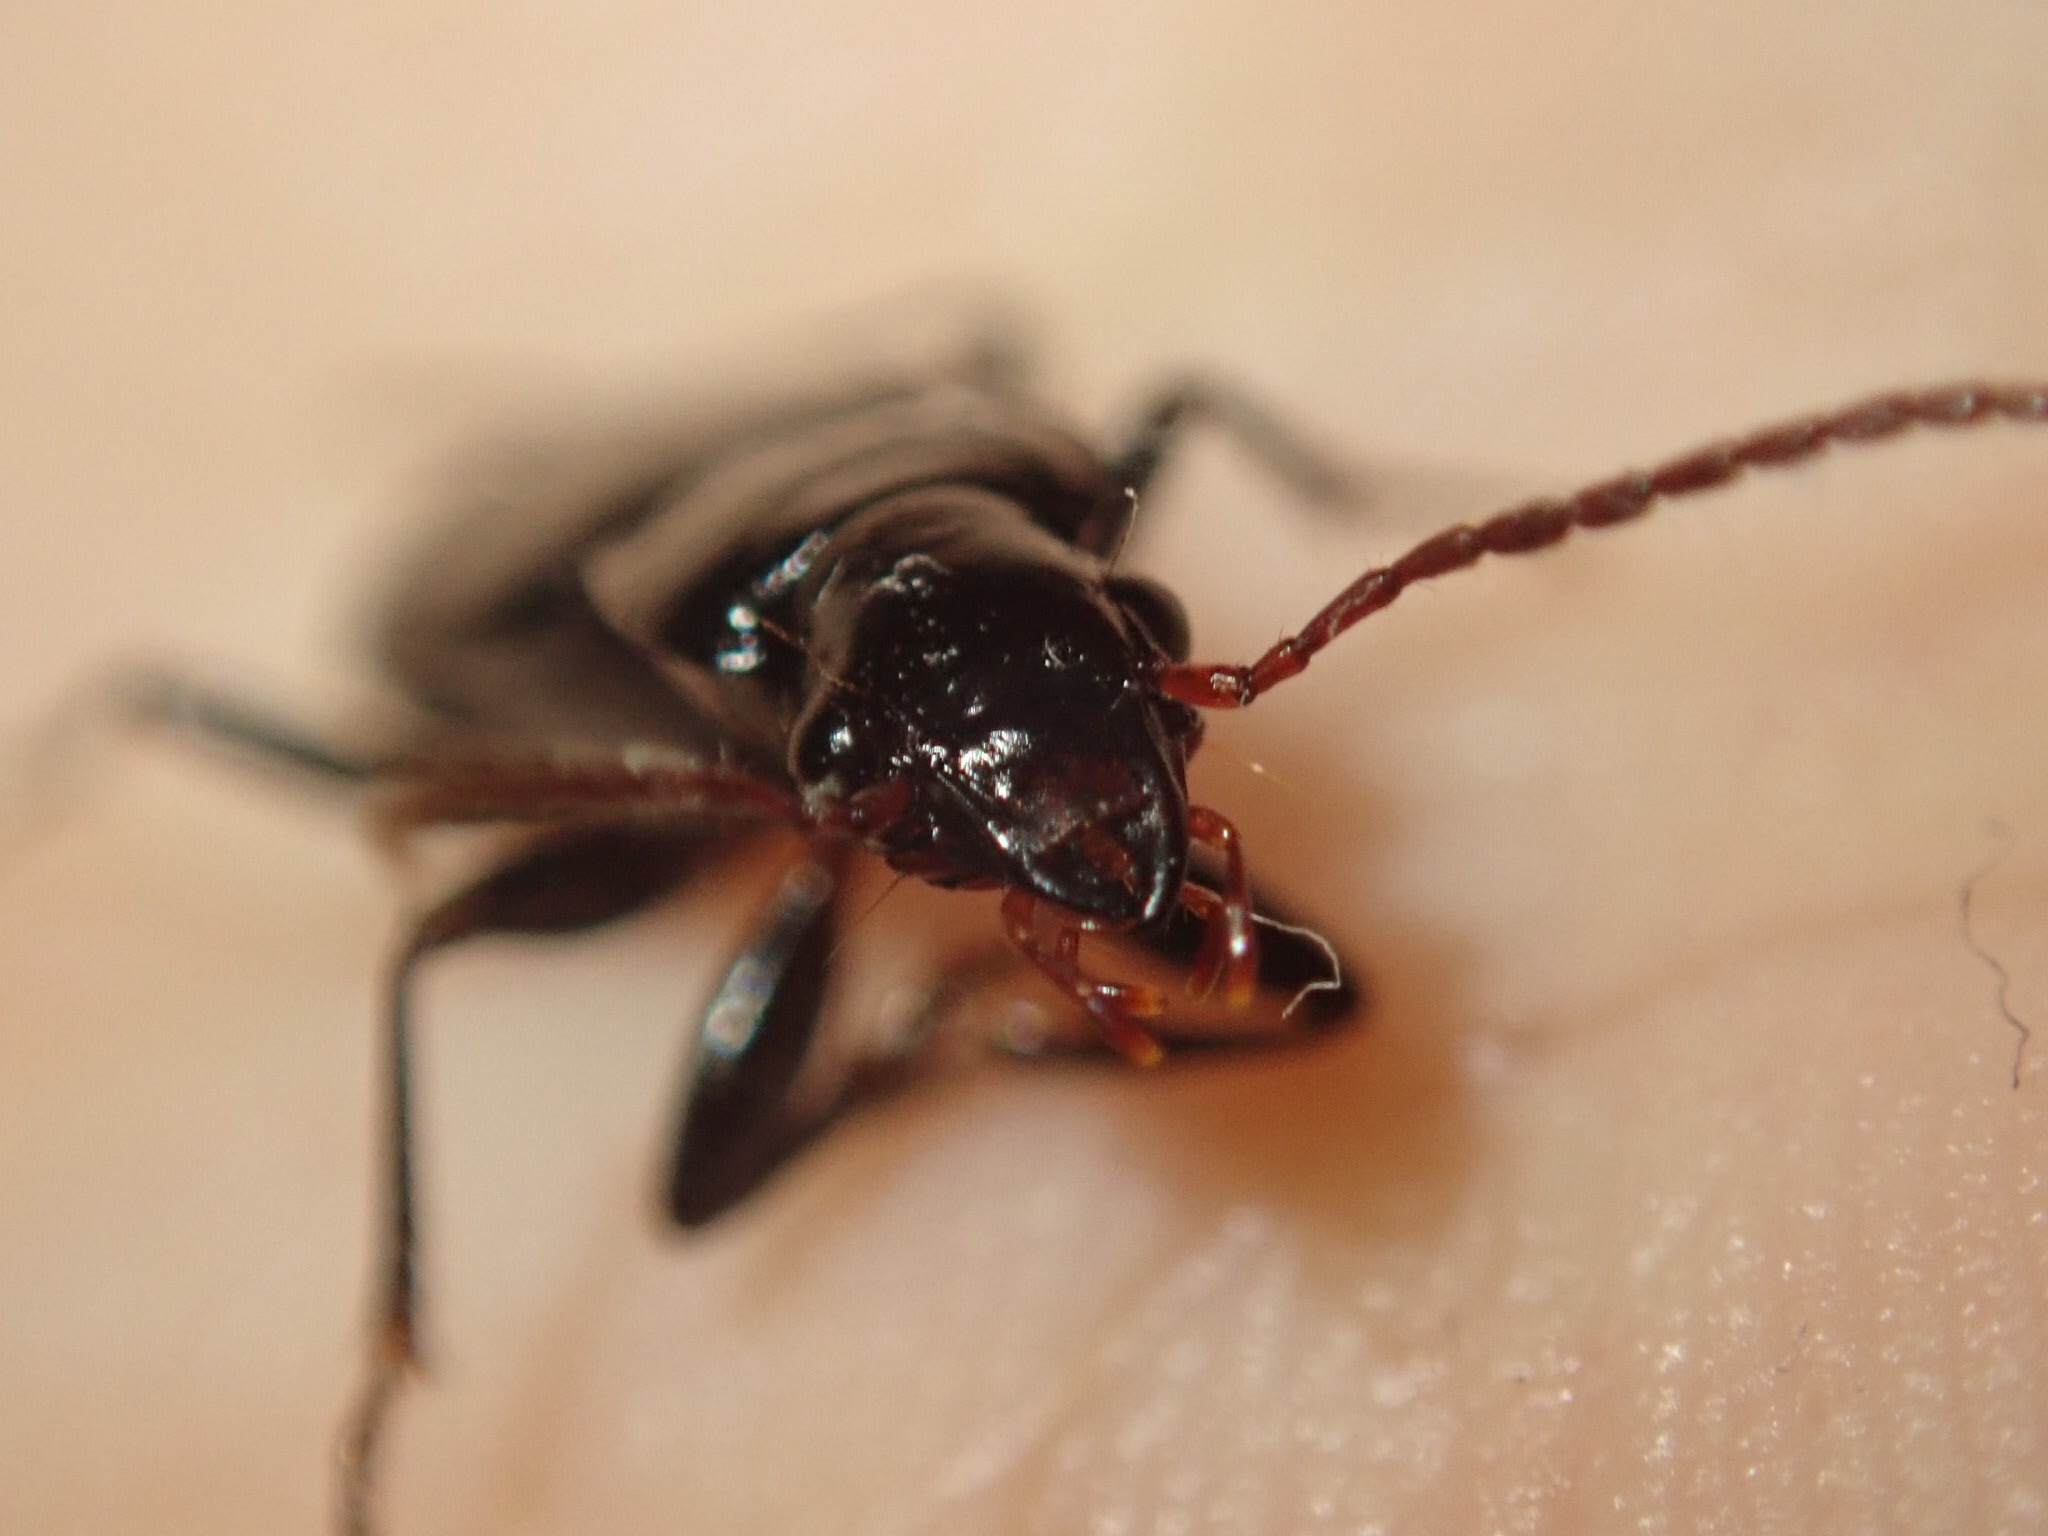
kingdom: Animalia
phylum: Arthropoda
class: Insecta
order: Coleoptera
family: Carabidae
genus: Laemostenus
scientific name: Laemostenus complanatus
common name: Cosmopolitan ground beetle
